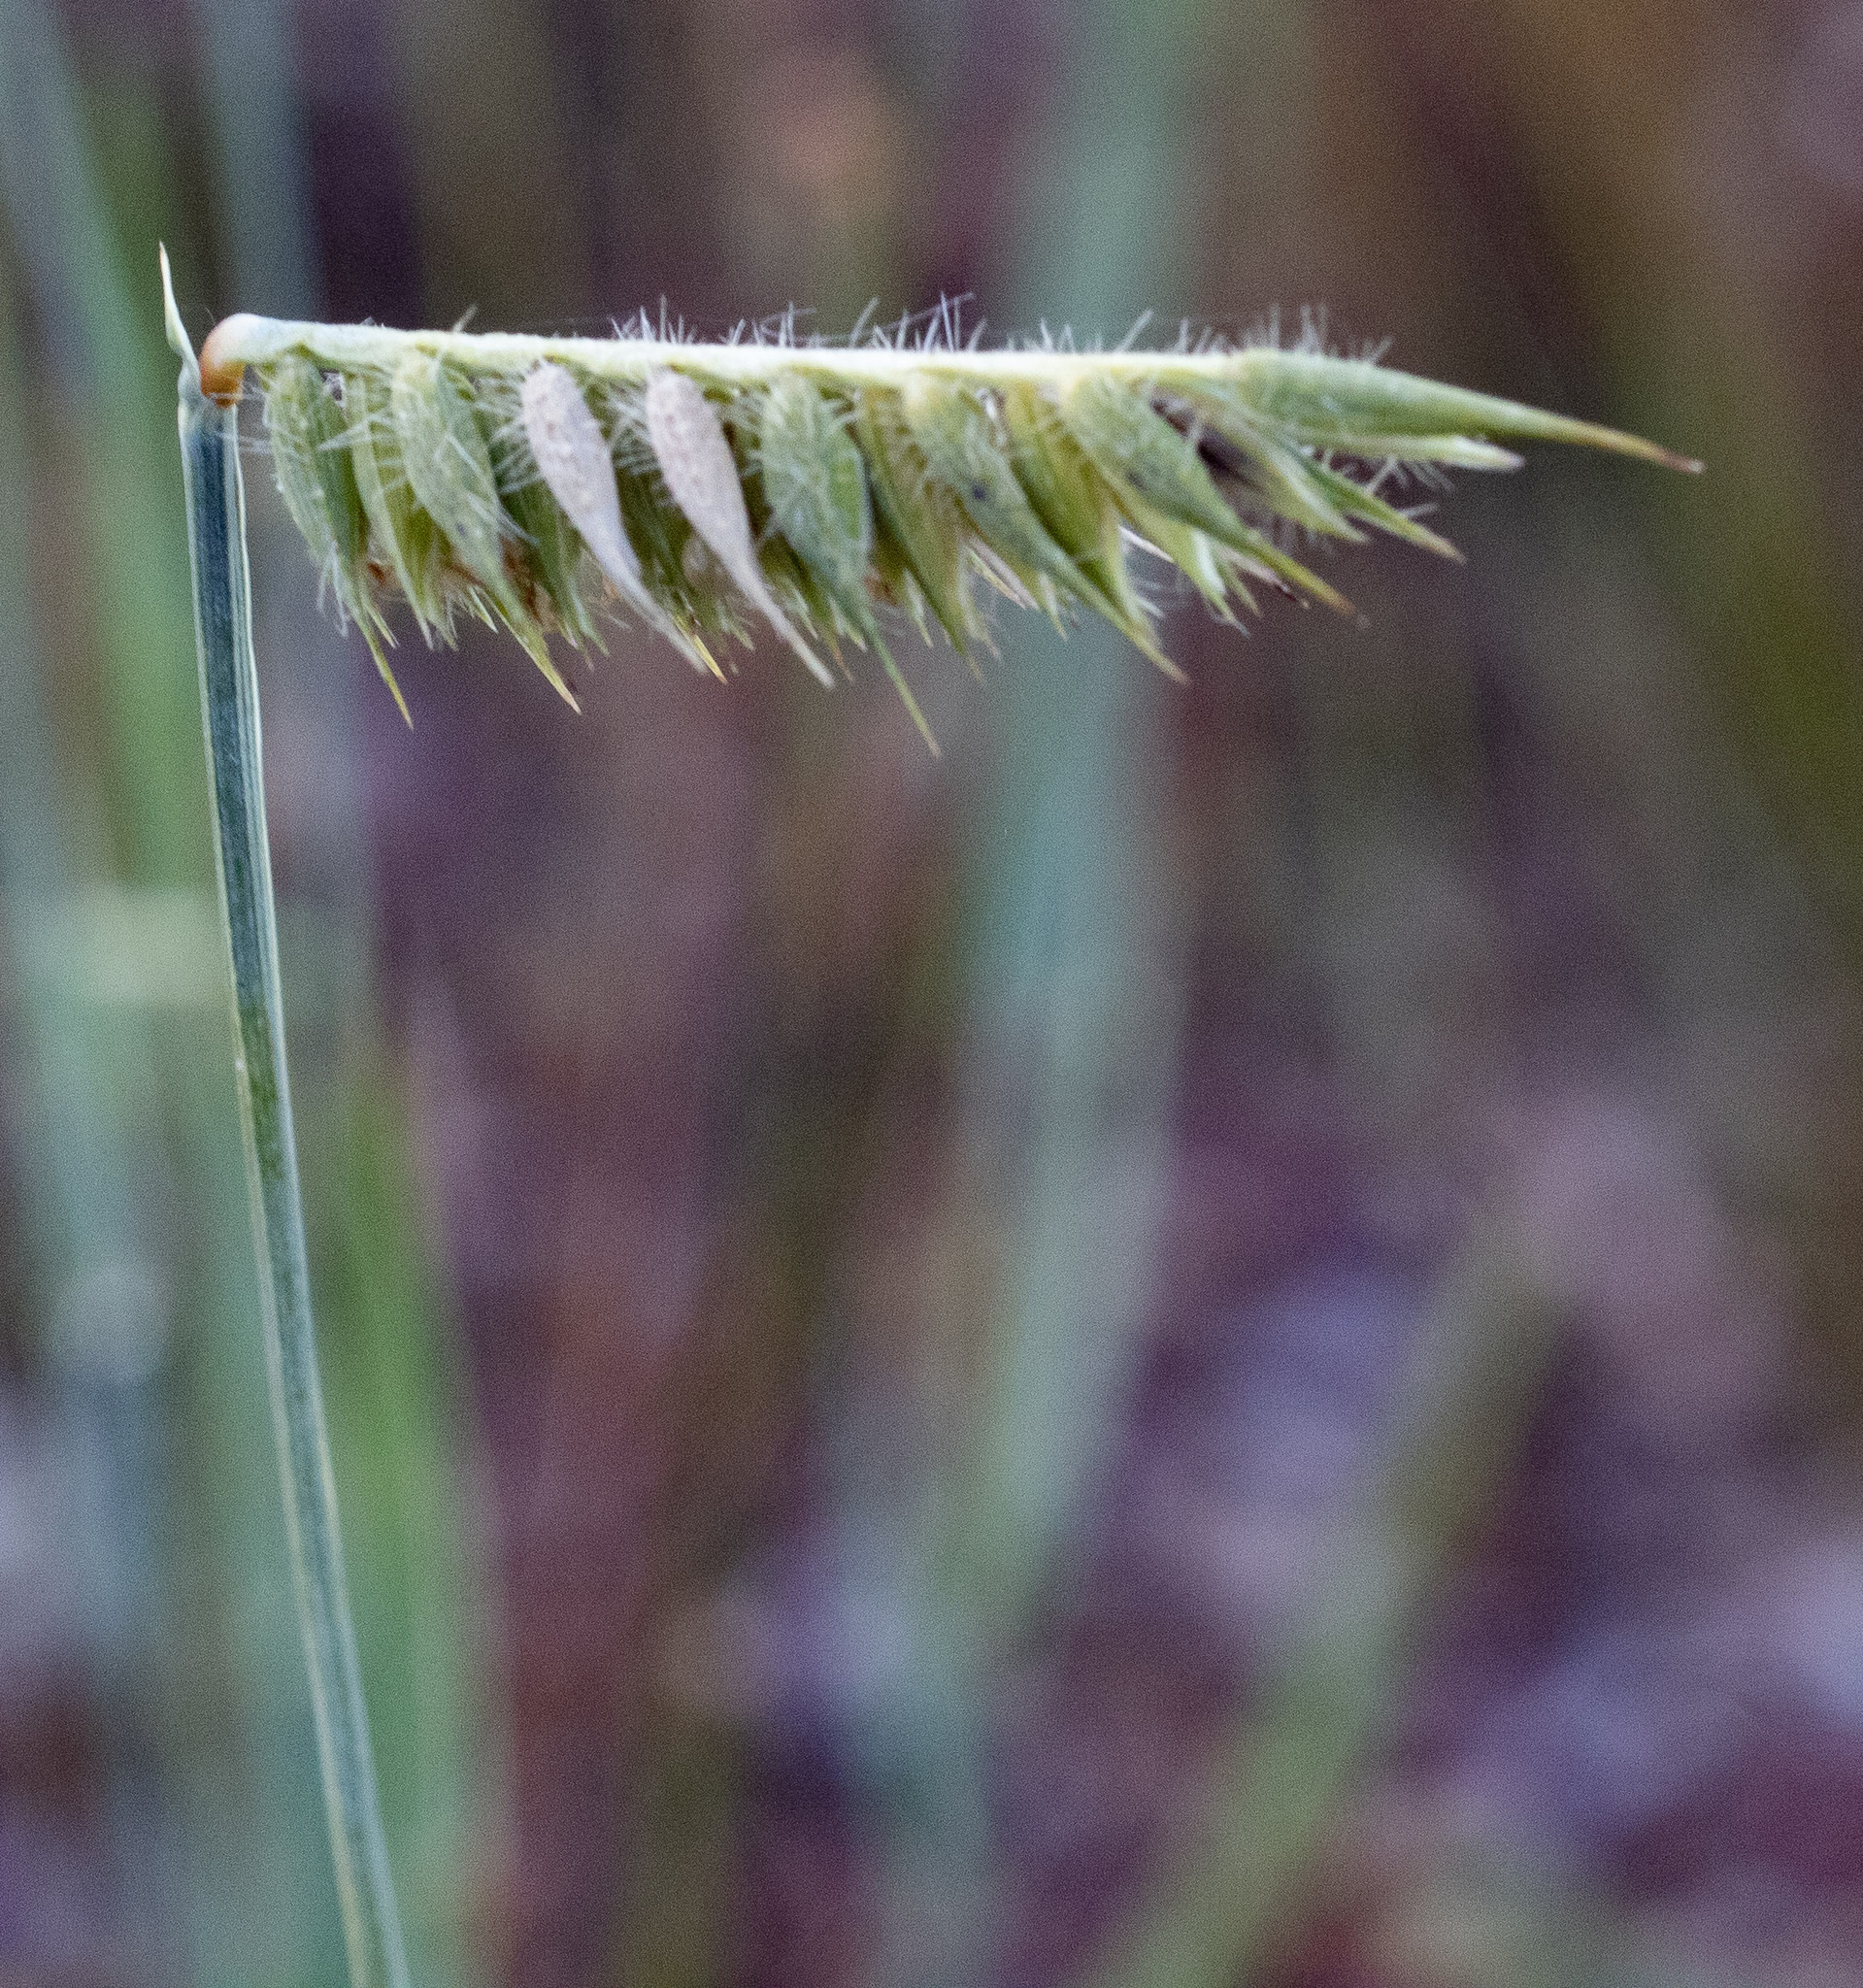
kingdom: Plantae
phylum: Tracheophyta
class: Liliopsida
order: Poales
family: Poaceae
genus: Echinolaena
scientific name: Echinolaena inflexa
